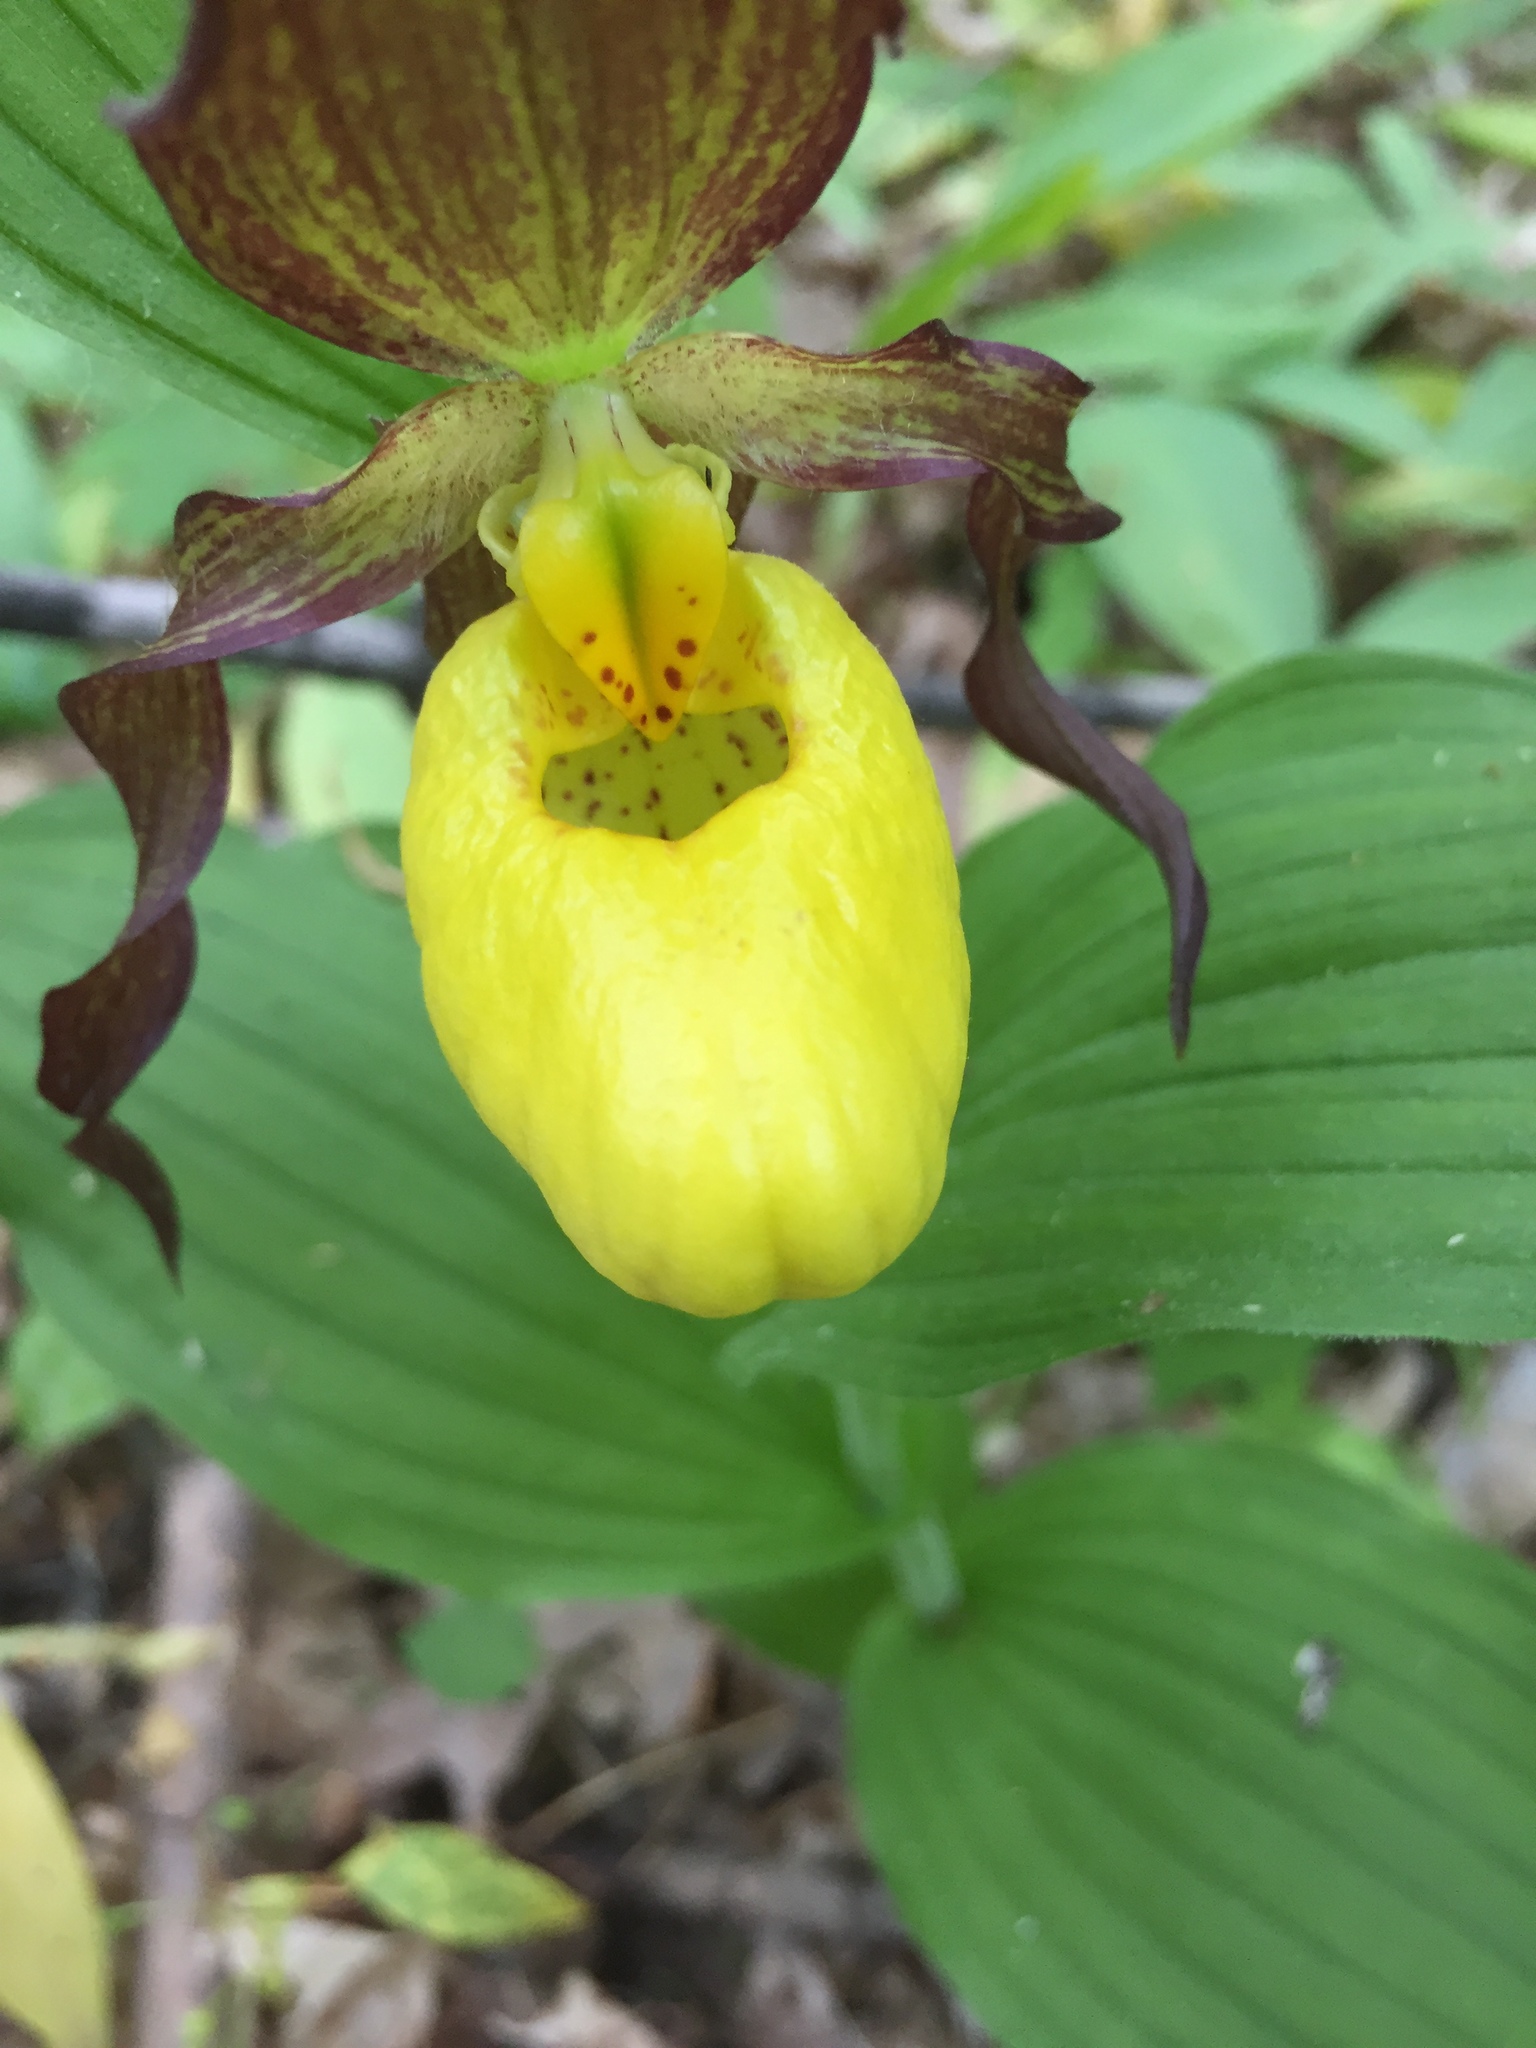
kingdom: Plantae
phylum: Tracheophyta
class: Liliopsida
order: Asparagales
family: Orchidaceae
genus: Cypripedium
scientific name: Cypripedium parviflorum
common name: American yellow lady's-slipper
